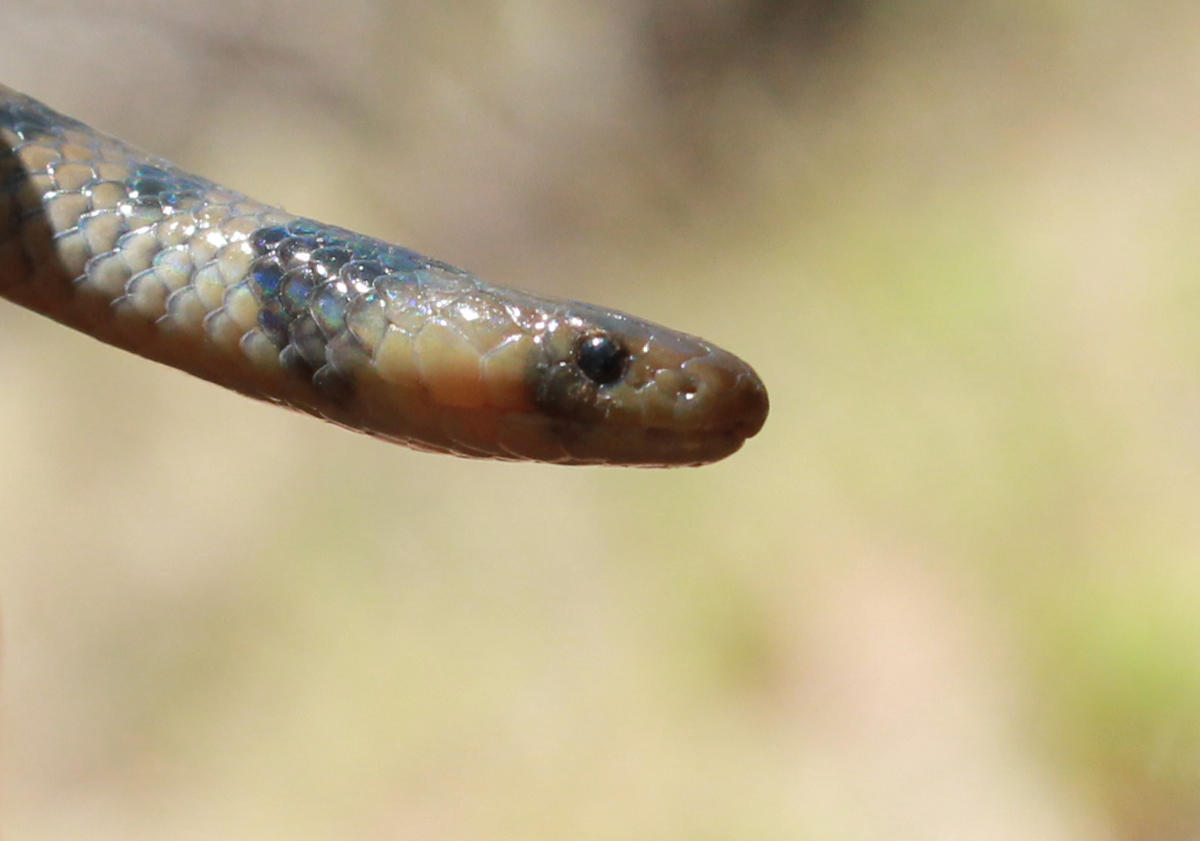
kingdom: Animalia
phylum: Chordata
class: Squamata
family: Atractaspididae
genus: Aparallactus
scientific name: Aparallactus lunulatus
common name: Plumbeous centipede eater
